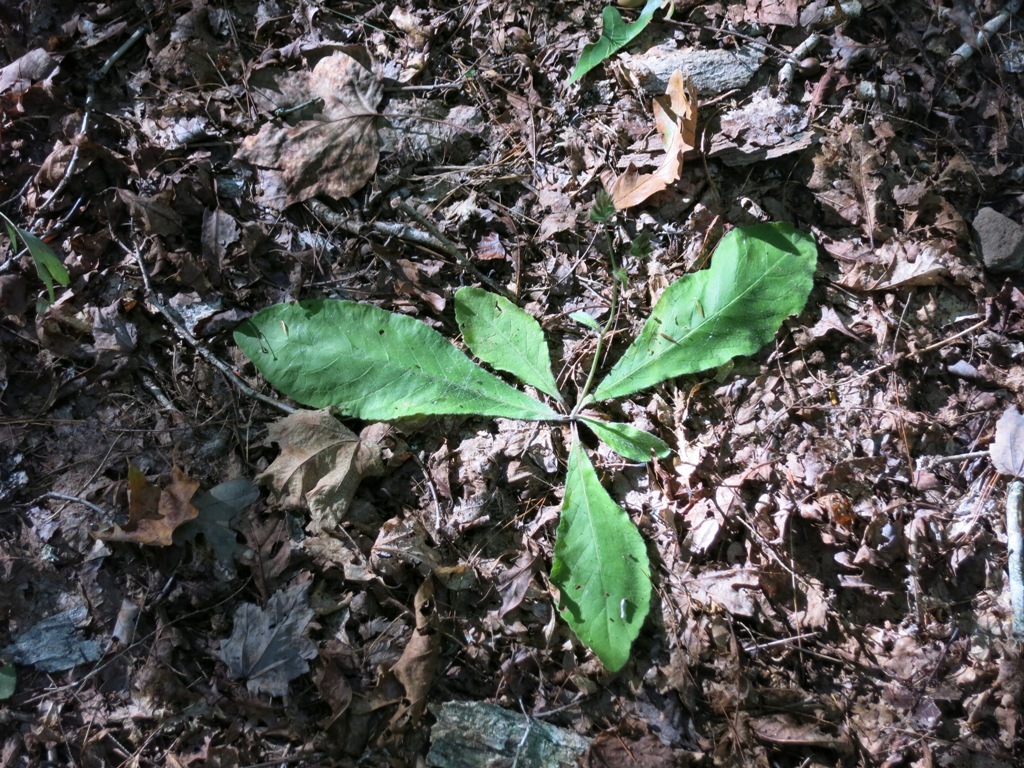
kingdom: Plantae
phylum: Tracheophyta
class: Magnoliopsida
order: Asterales
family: Asteraceae
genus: Elephantopus
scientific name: Elephantopus tomentosus
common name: Tobacco-weed
